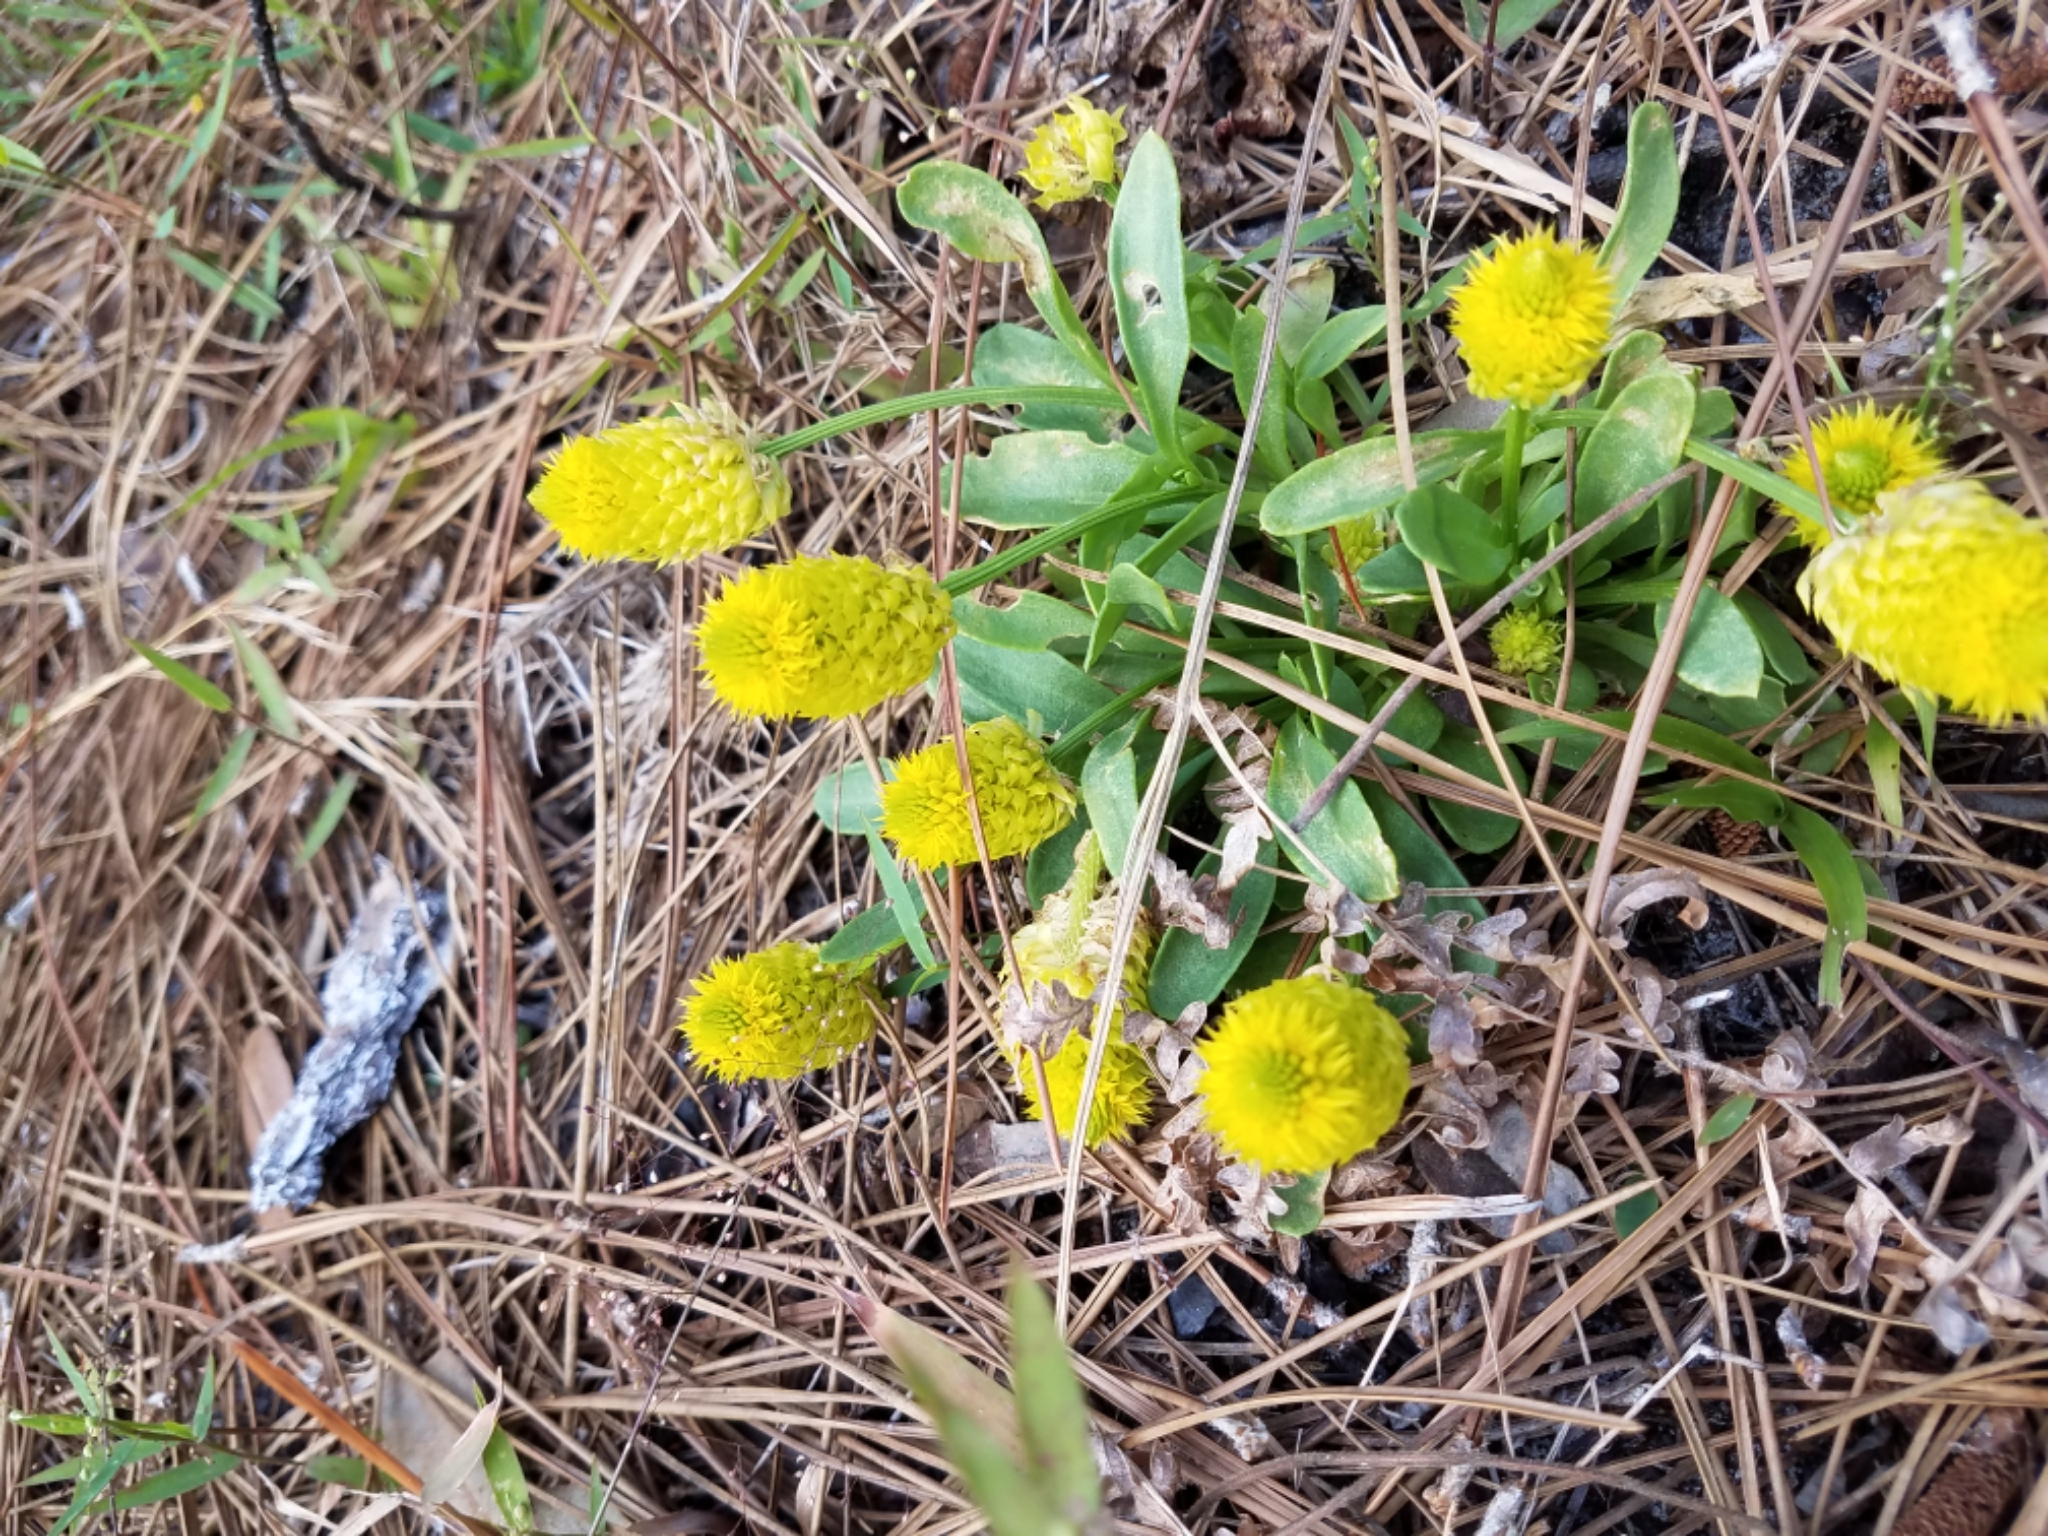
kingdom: Plantae
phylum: Tracheophyta
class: Magnoliopsida
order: Fabales
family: Polygalaceae
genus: Polygala
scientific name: Polygala nana
